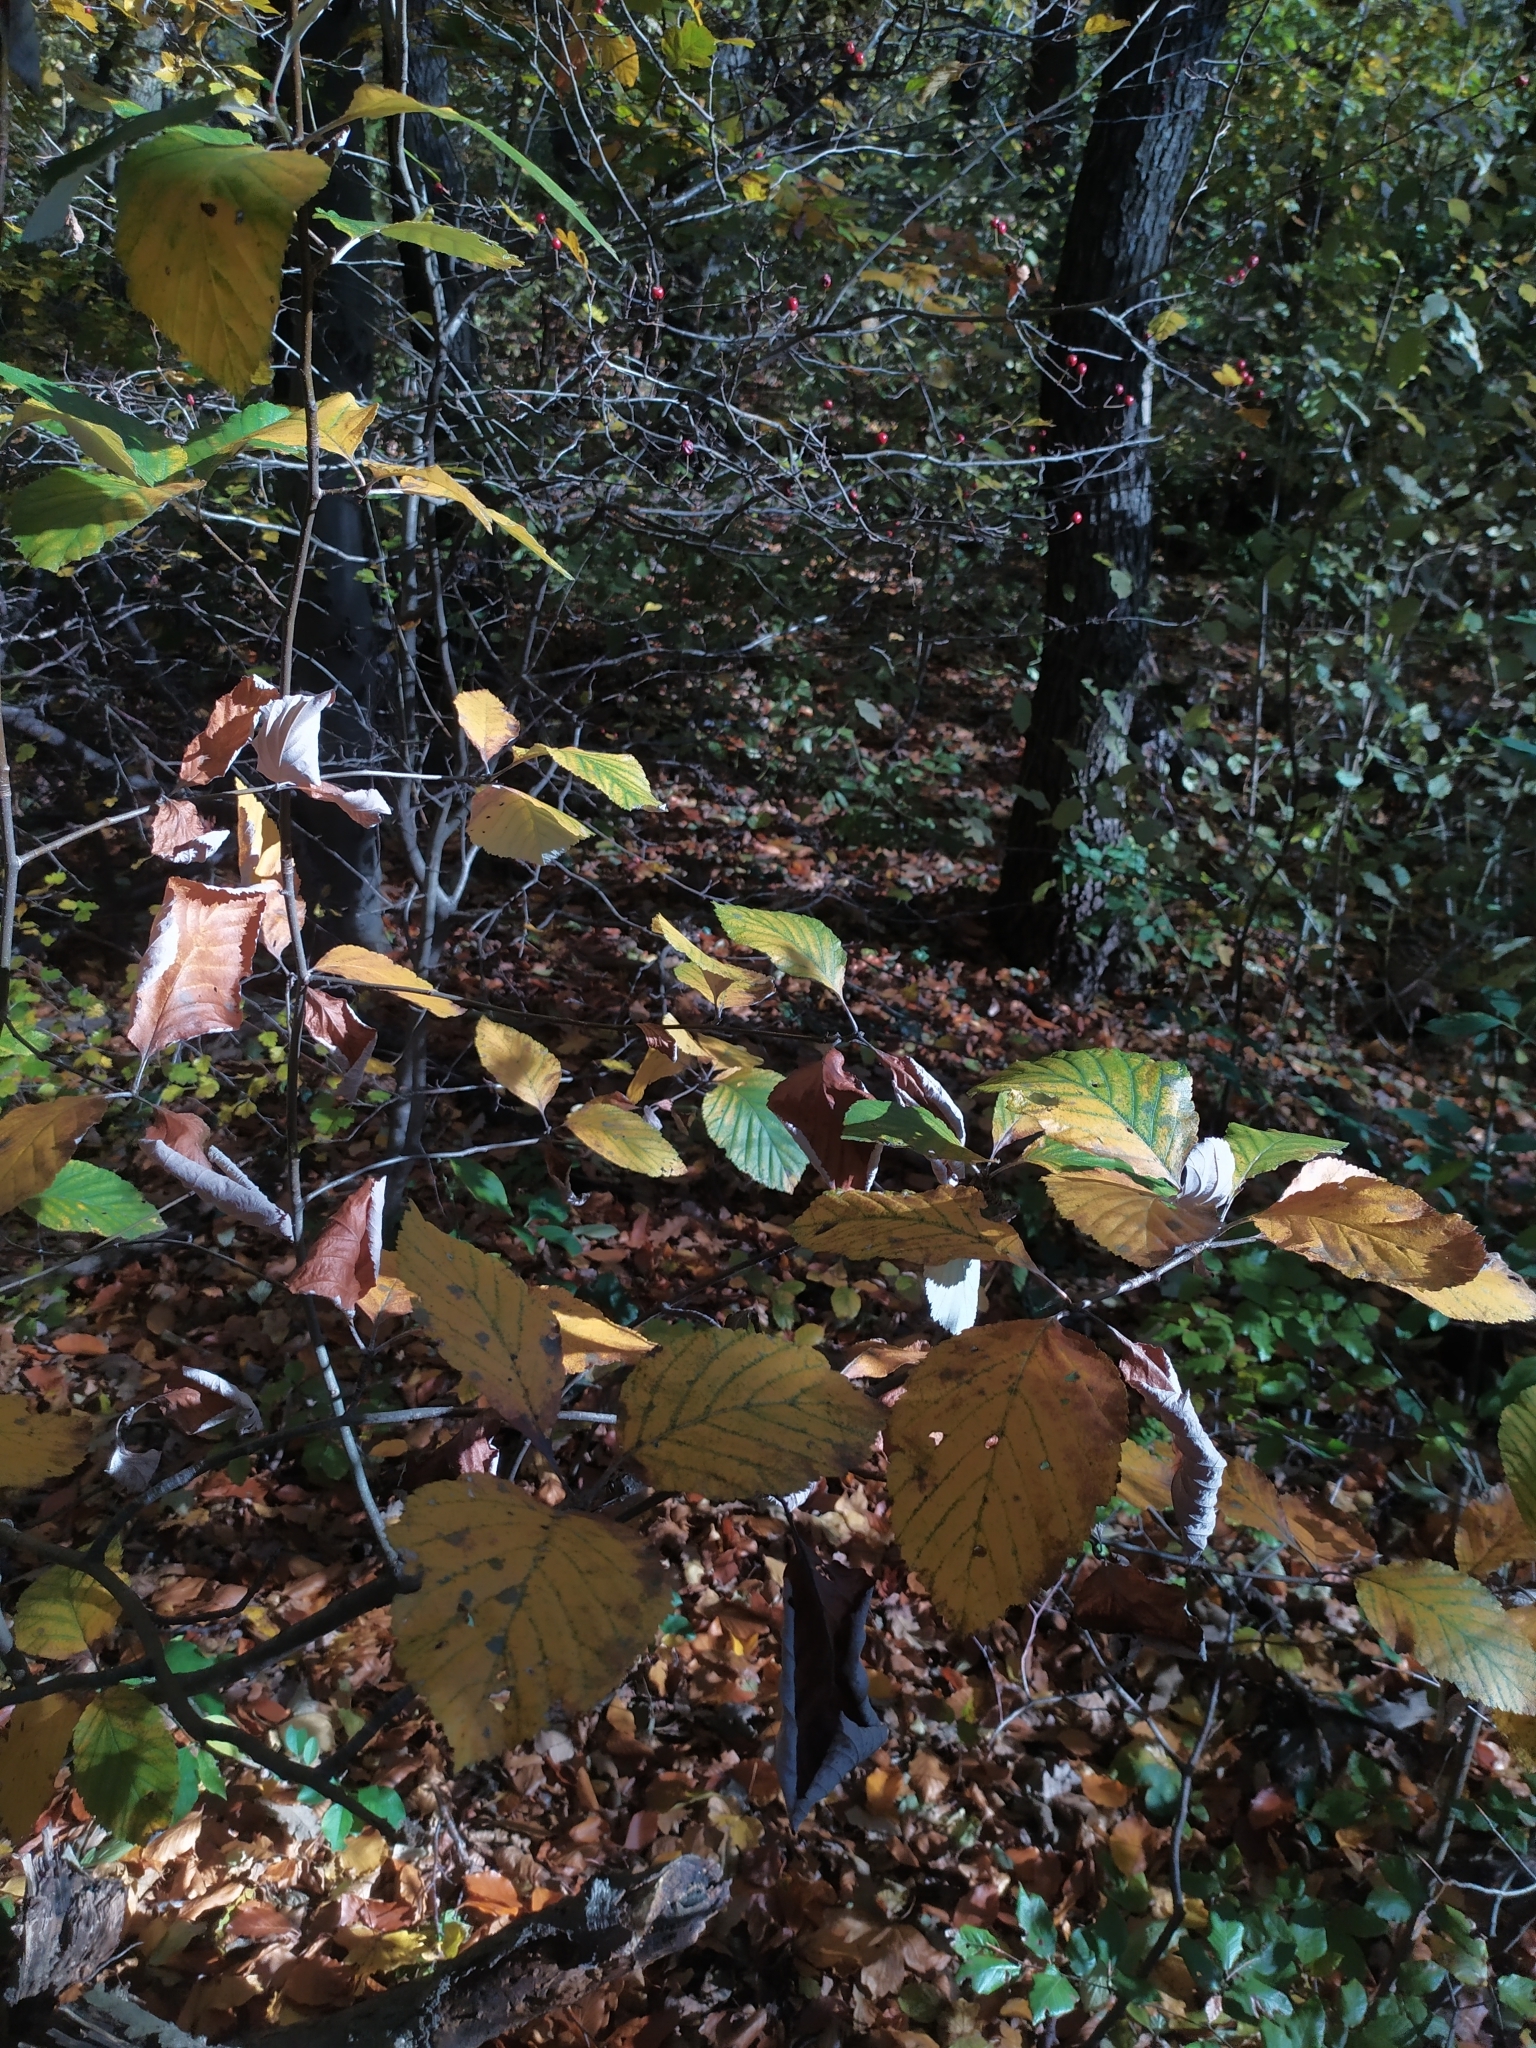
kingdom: Plantae
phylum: Tracheophyta
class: Magnoliopsida
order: Rosales
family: Rosaceae
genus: Aria
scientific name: Aria edulis
